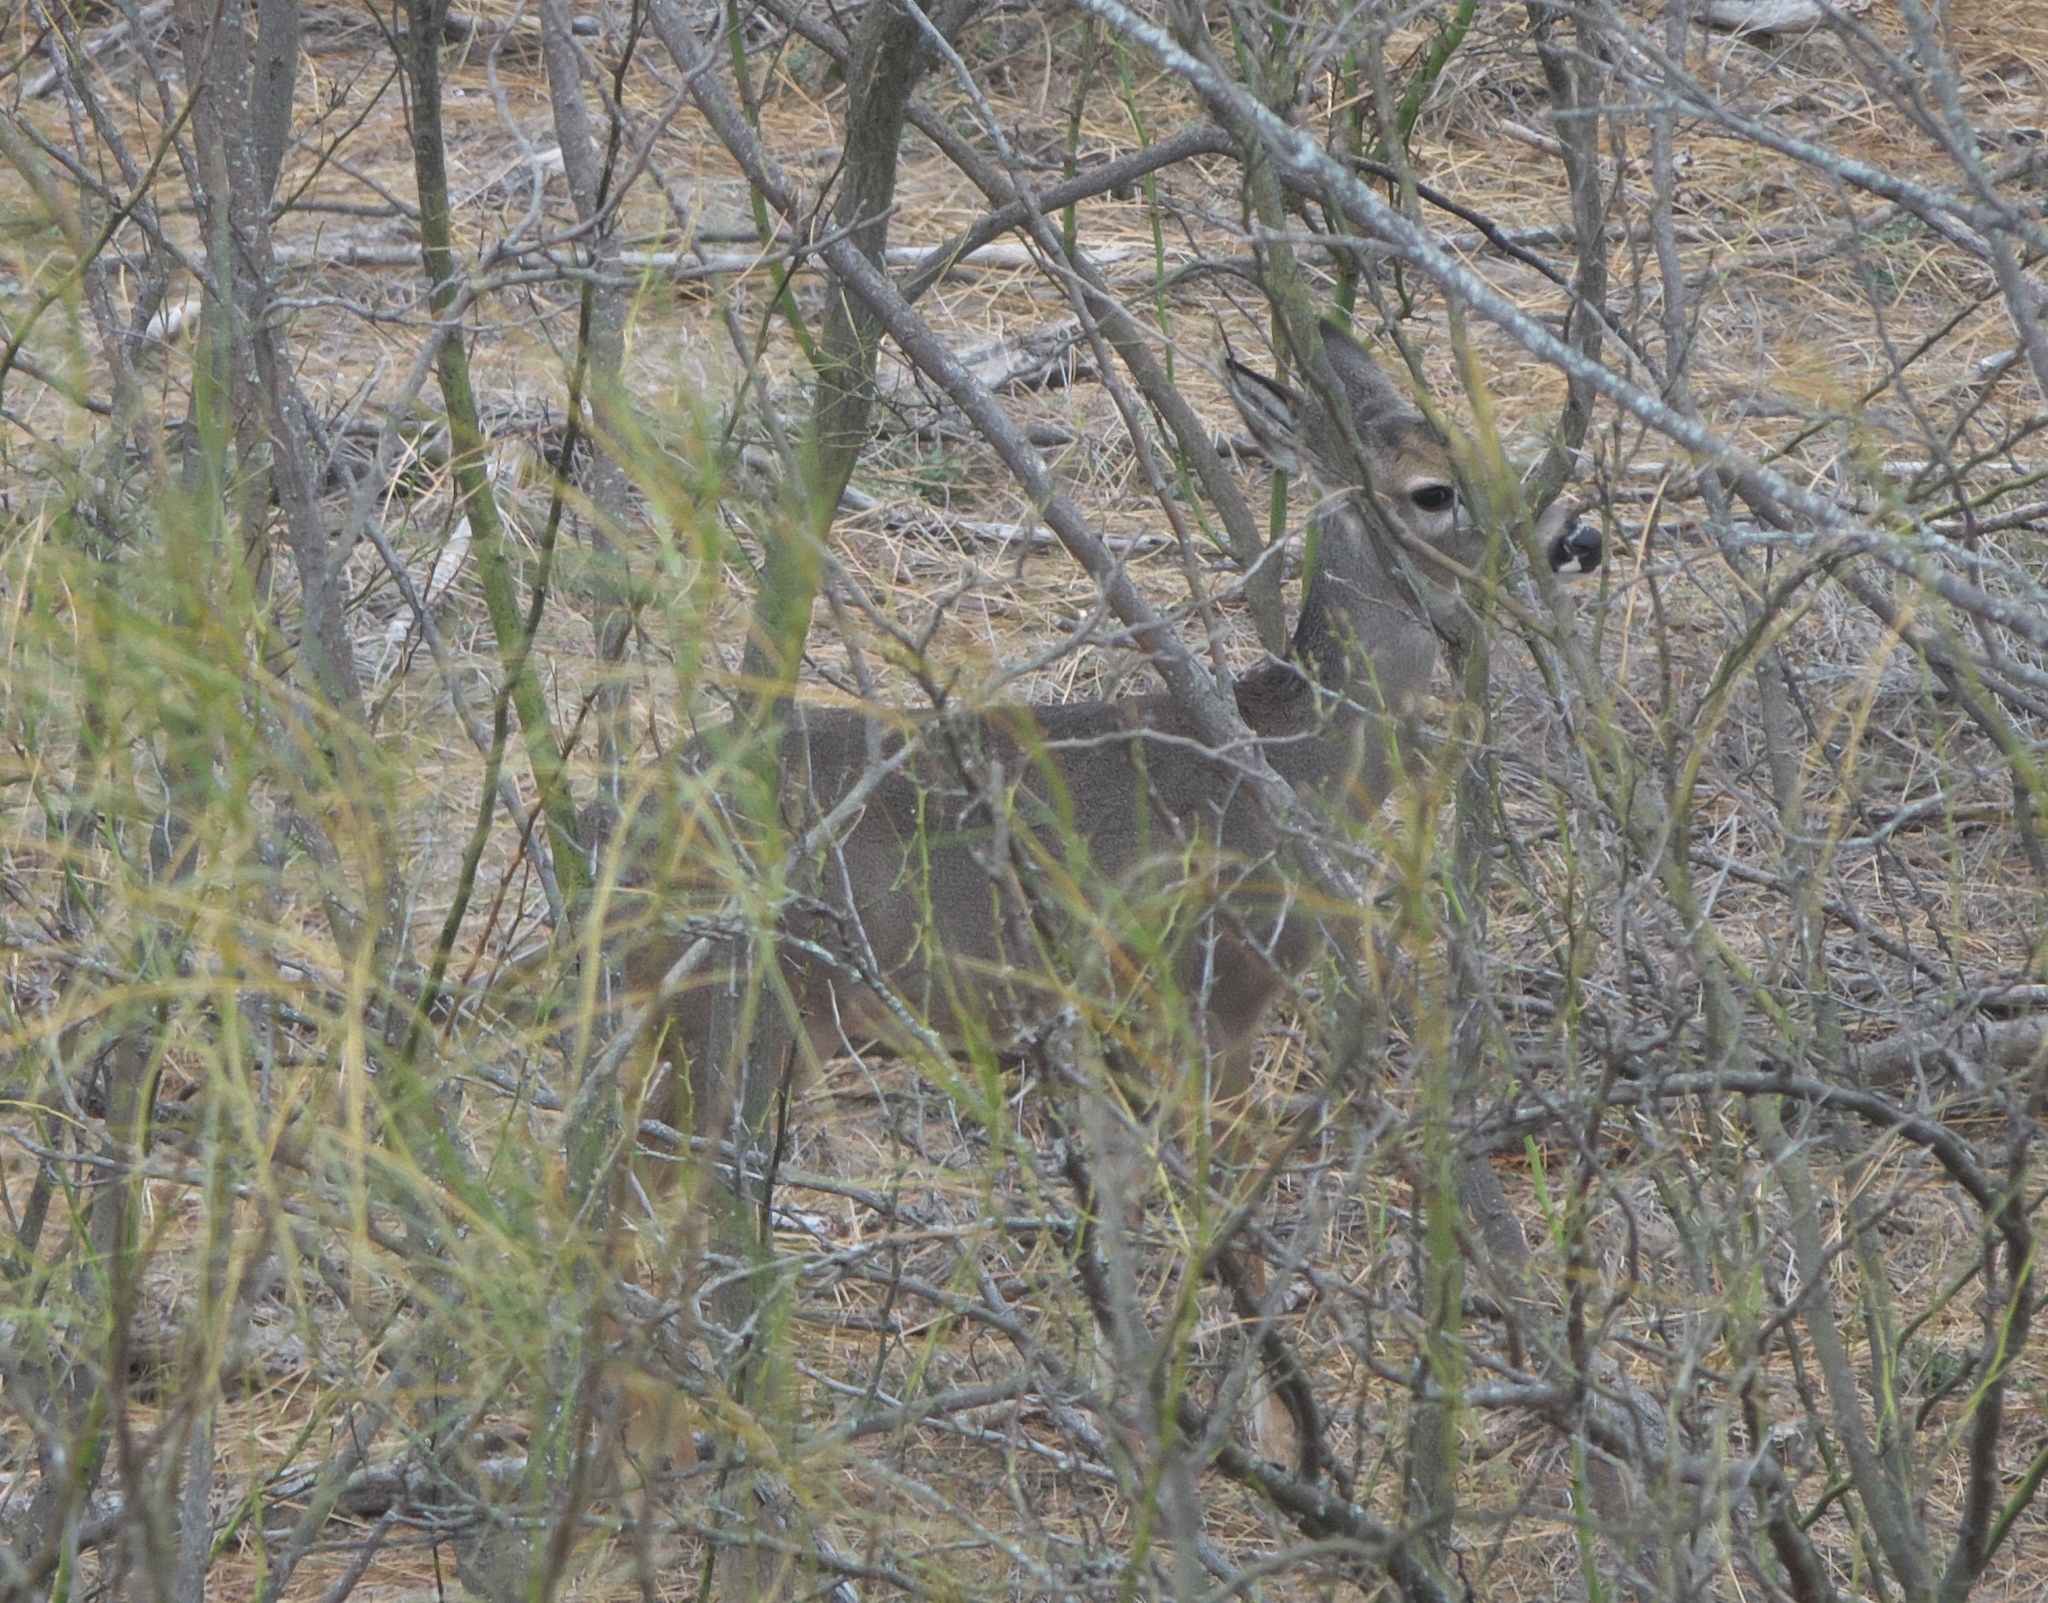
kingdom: Animalia
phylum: Chordata
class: Mammalia
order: Artiodactyla
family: Cervidae
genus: Odocoileus
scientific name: Odocoileus virginianus
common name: White-tailed deer
